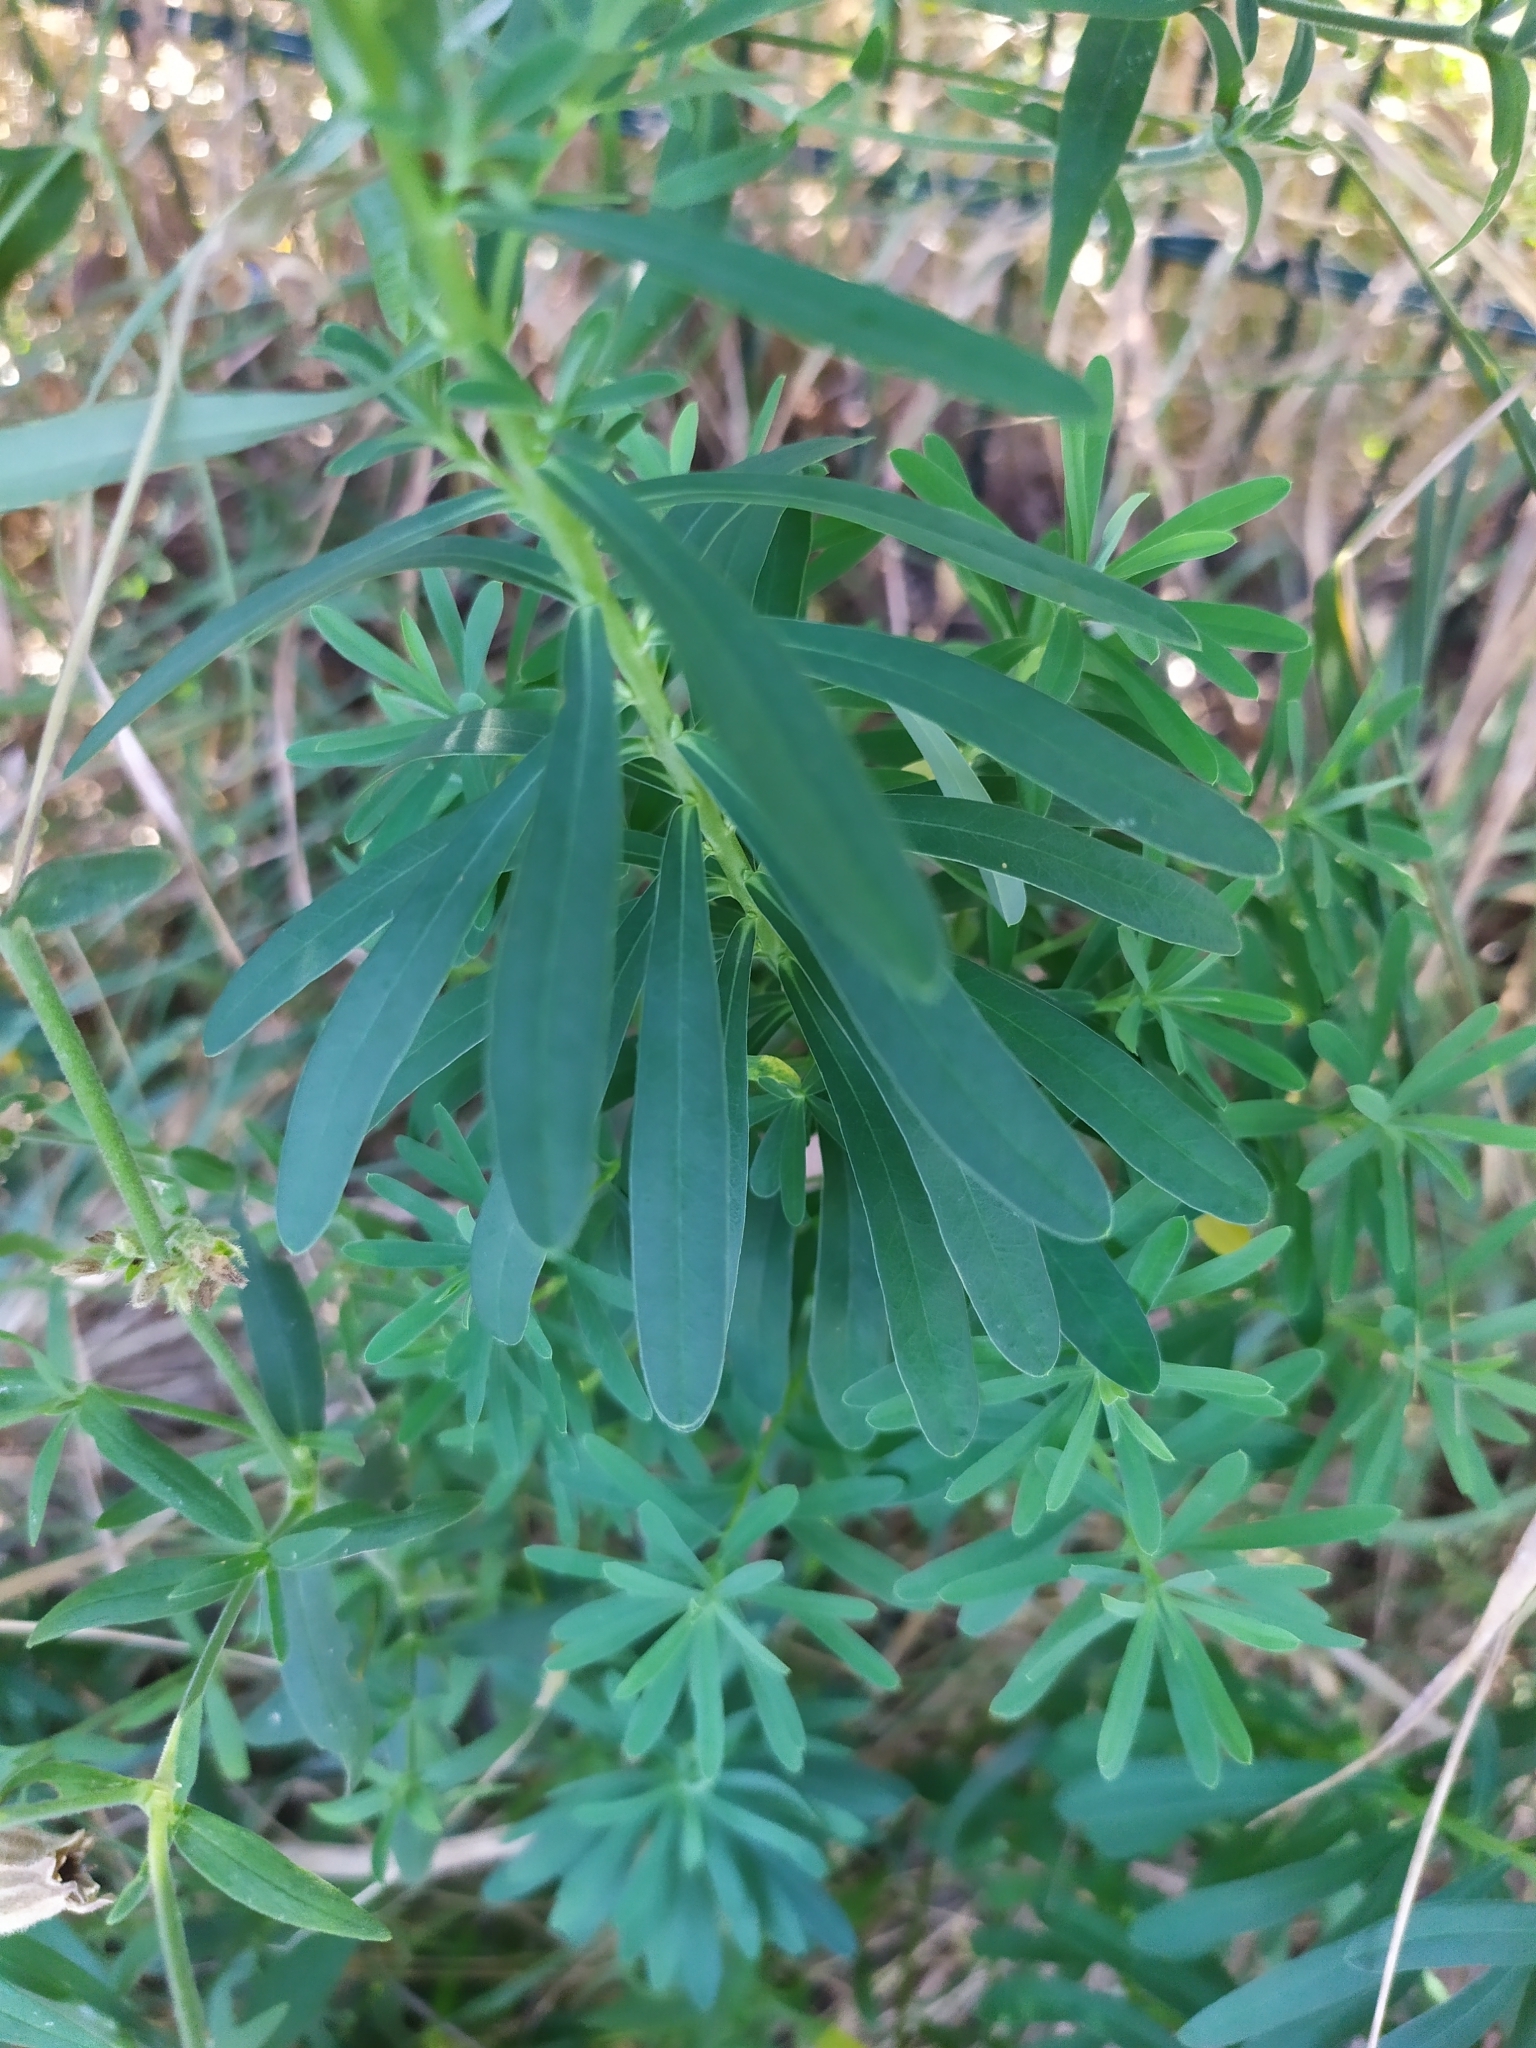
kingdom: Plantae
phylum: Tracheophyta
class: Magnoliopsida
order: Malpighiales
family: Euphorbiaceae
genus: Euphorbia
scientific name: Euphorbia esula
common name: Leafy spurge
